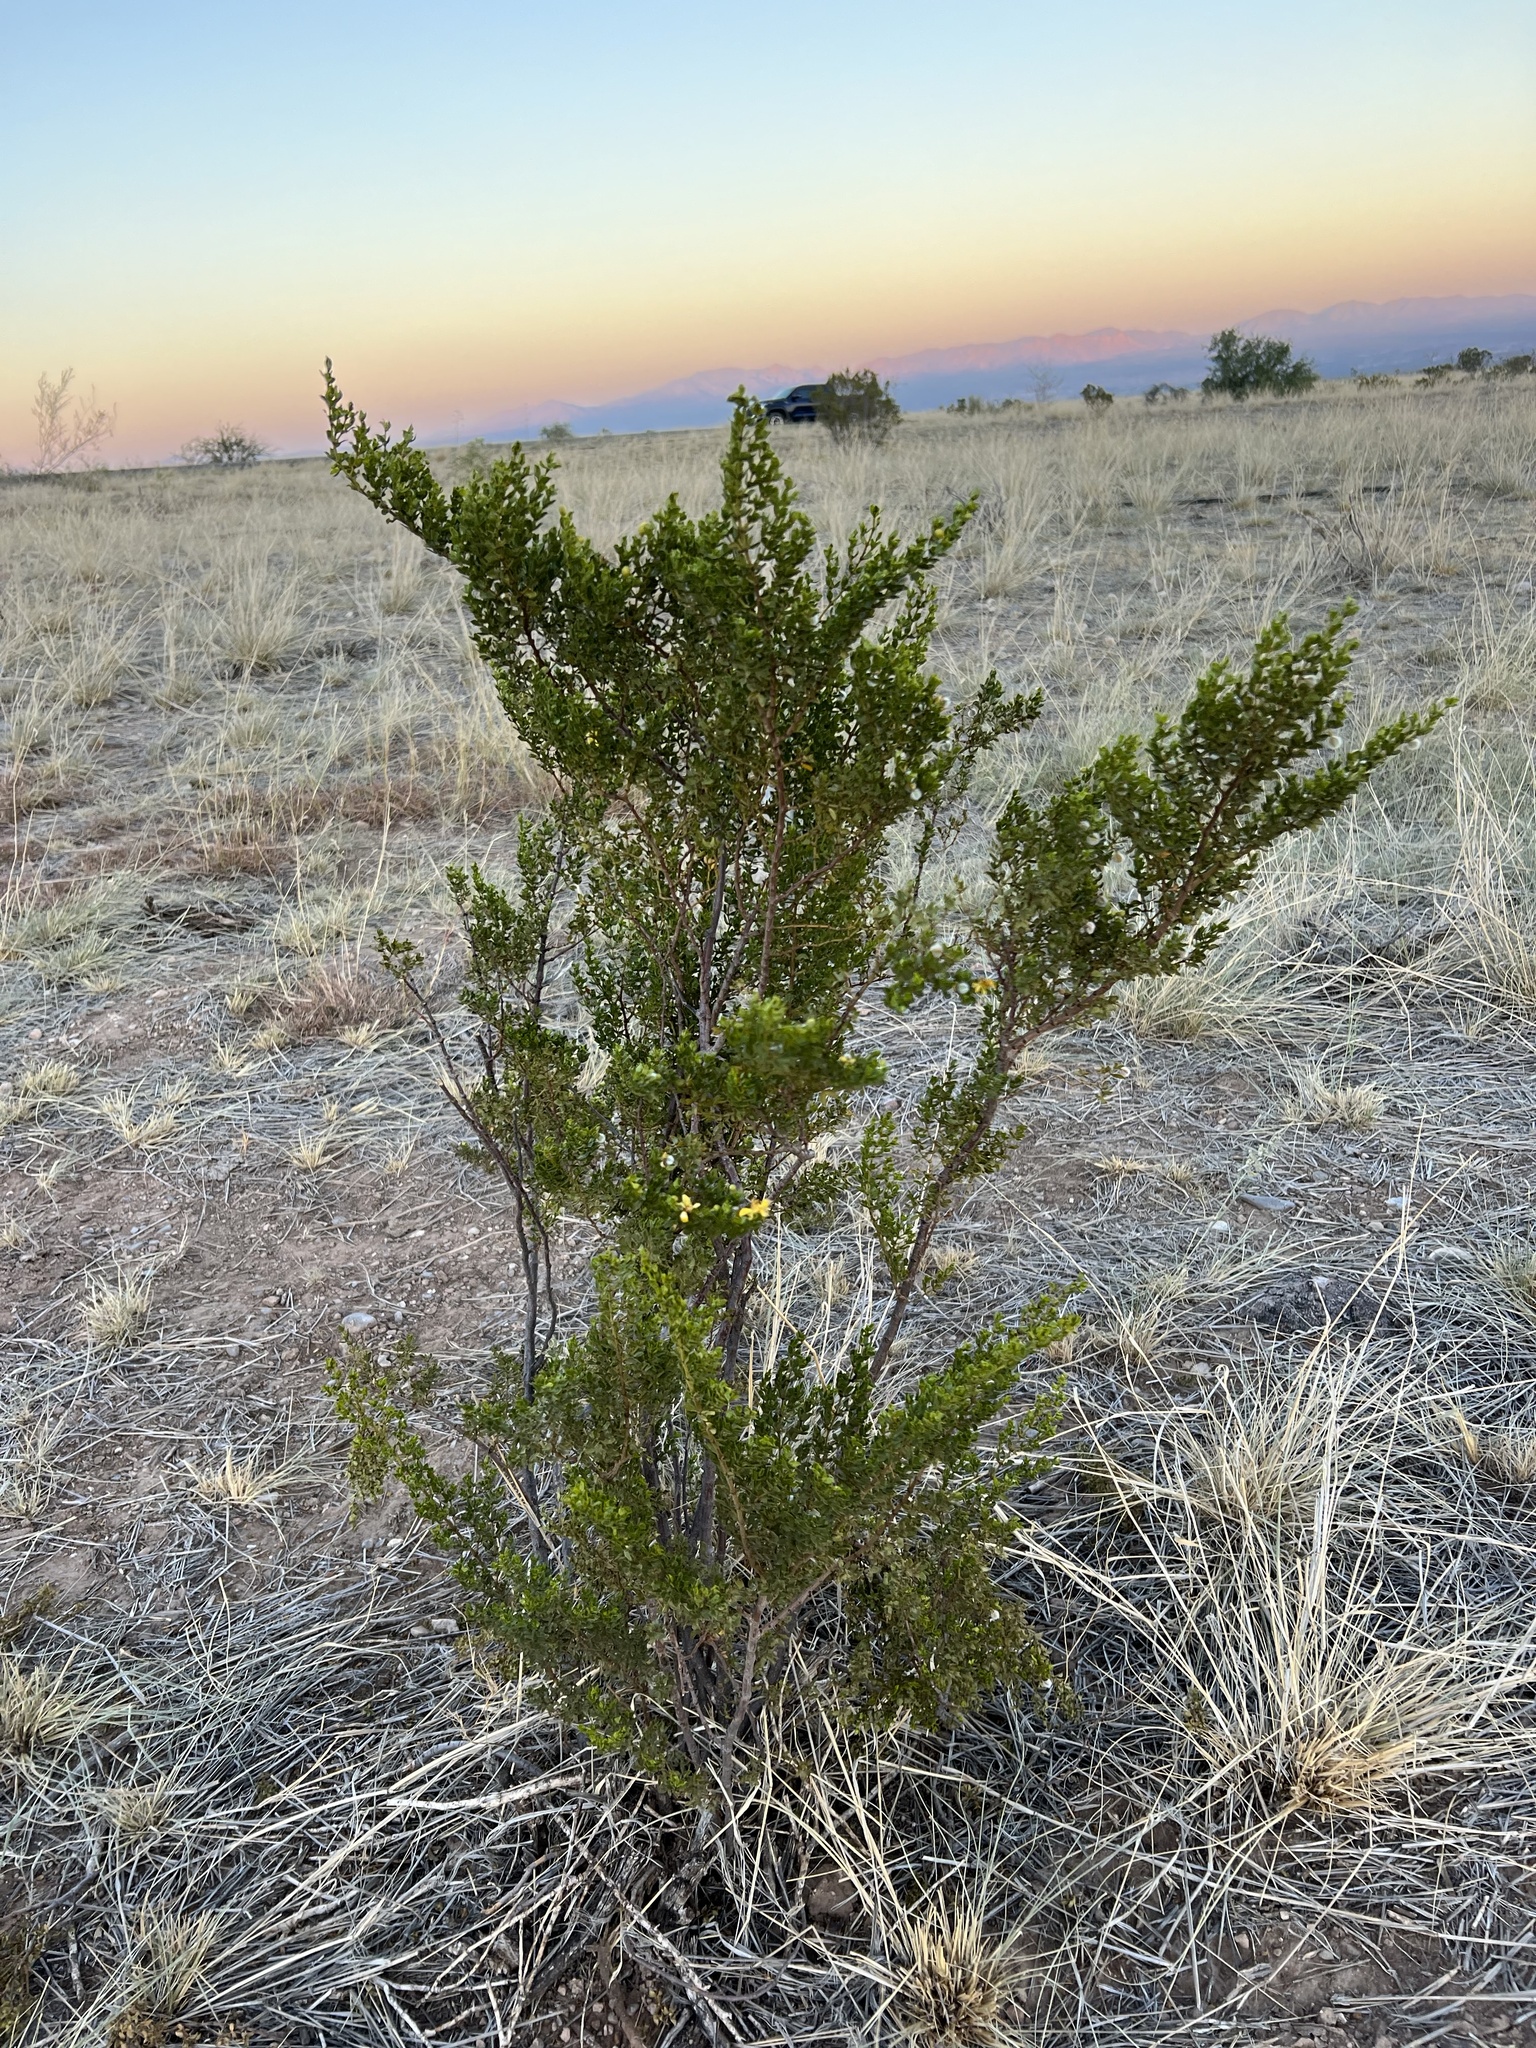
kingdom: Plantae
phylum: Tracheophyta
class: Magnoliopsida
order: Zygophyllales
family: Zygophyllaceae
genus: Larrea
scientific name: Larrea tridentata
